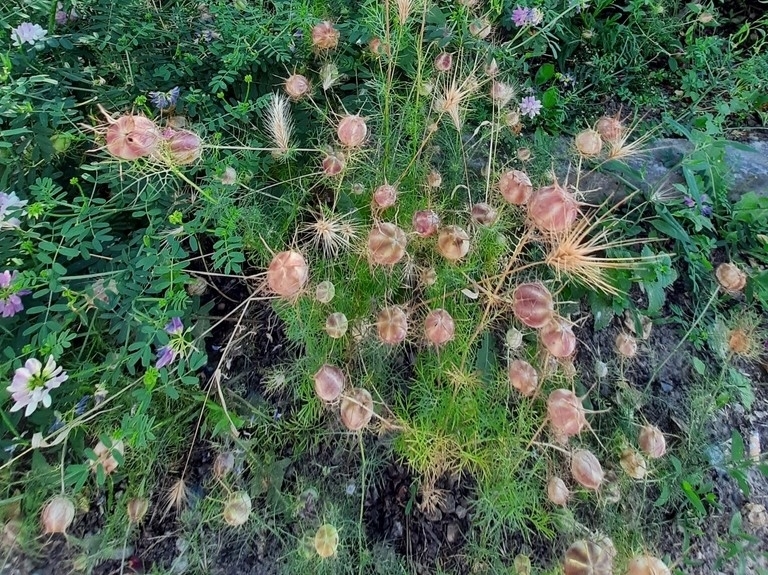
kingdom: Plantae
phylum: Tracheophyta
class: Magnoliopsida
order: Ranunculales
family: Ranunculaceae
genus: Nigella
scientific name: Nigella damascena
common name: Love-in-a-mist
